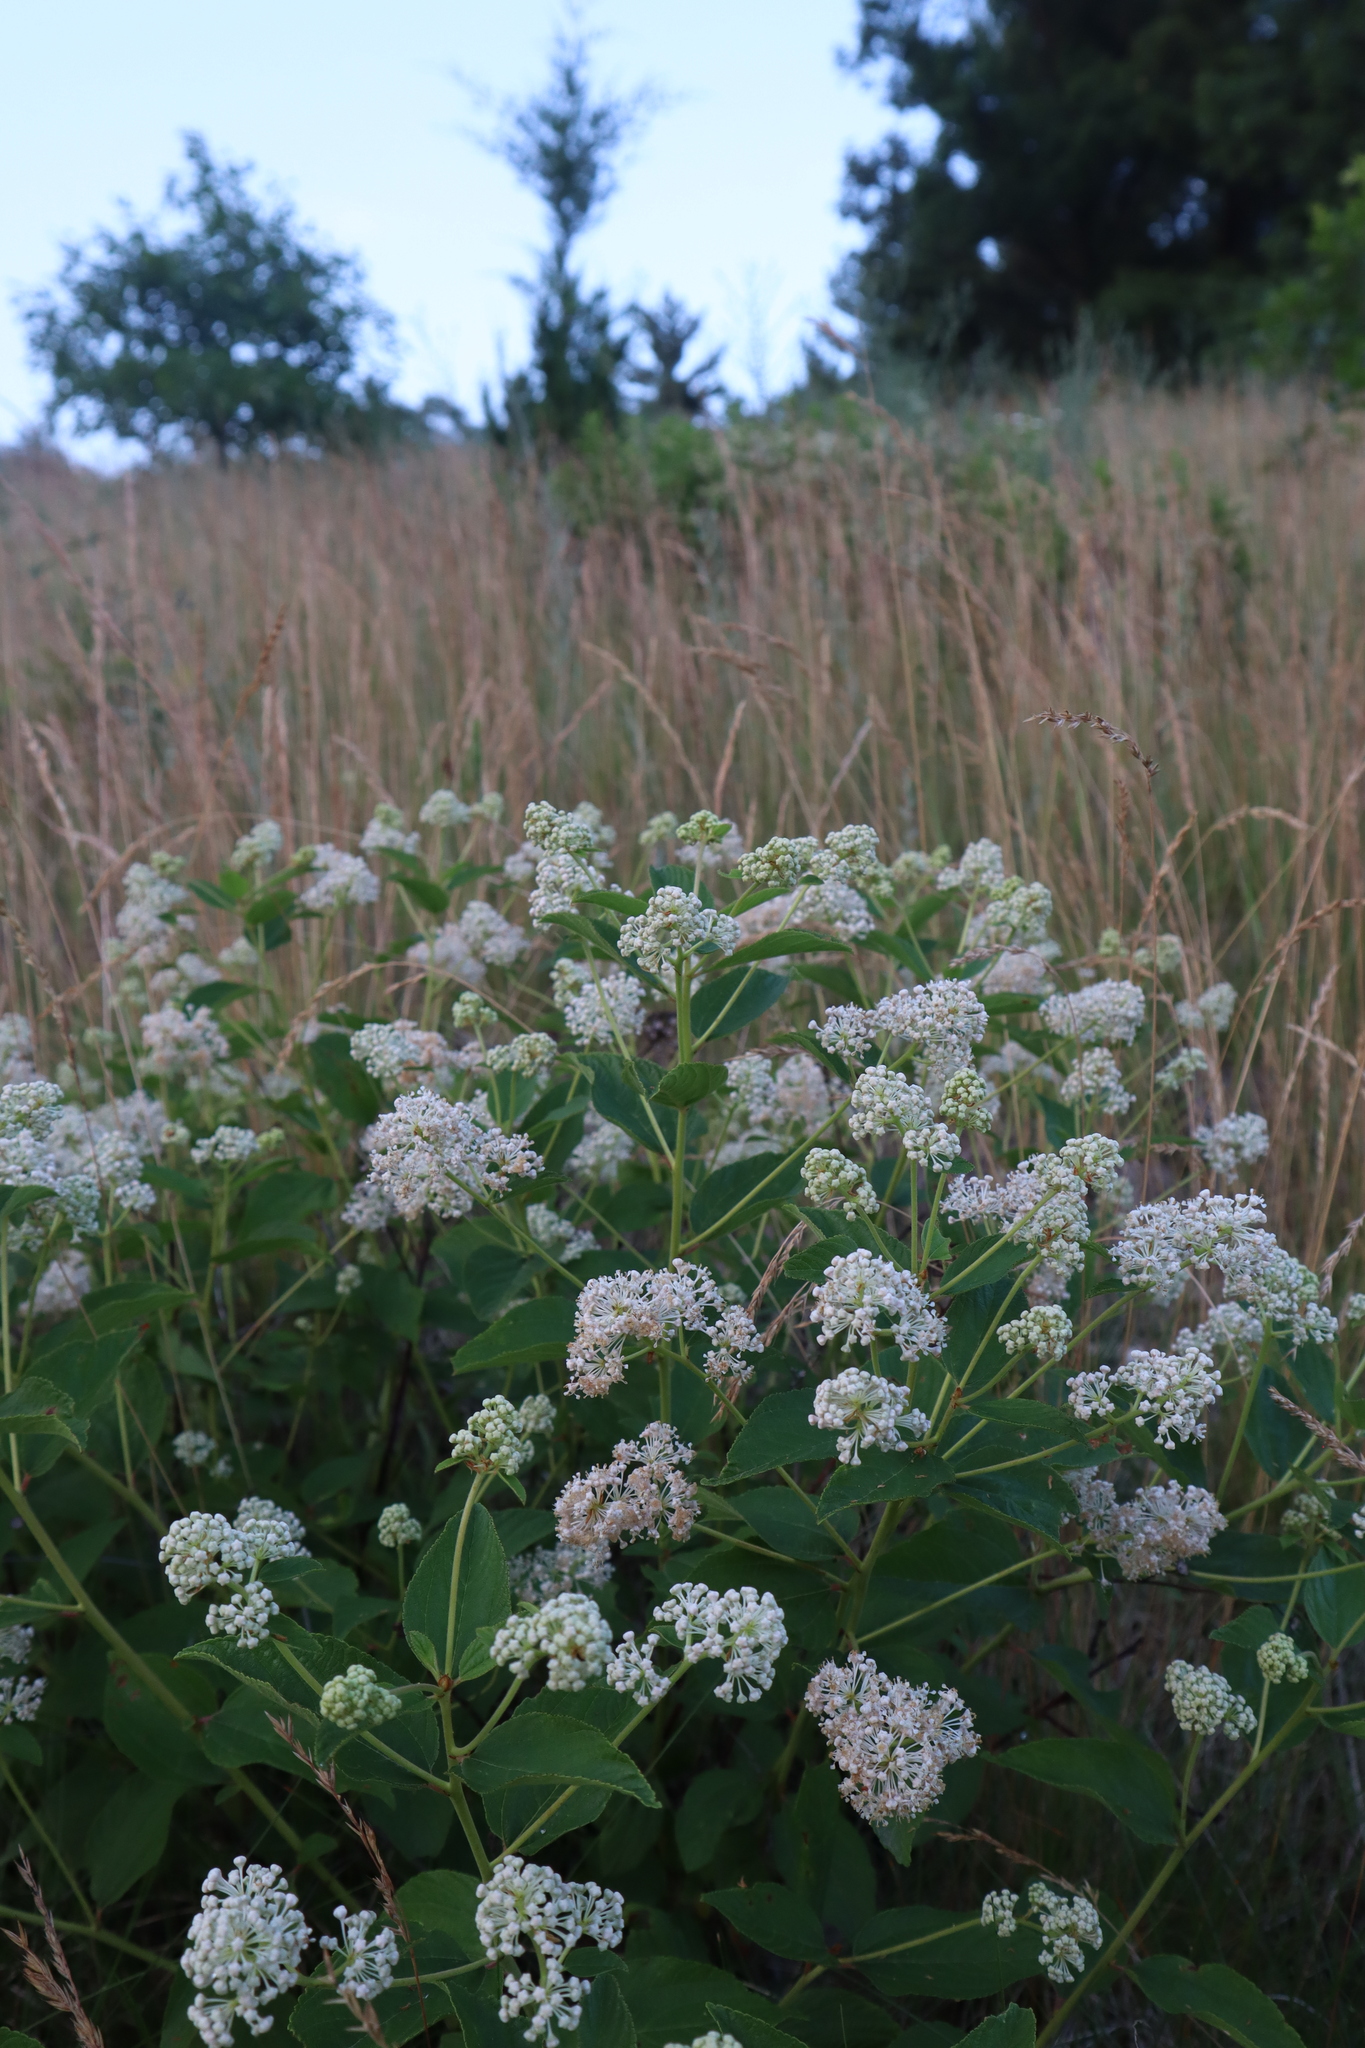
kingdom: Plantae
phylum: Tracheophyta
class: Magnoliopsida
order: Rosales
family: Rhamnaceae
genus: Ceanothus
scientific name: Ceanothus americanus
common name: Redroot
